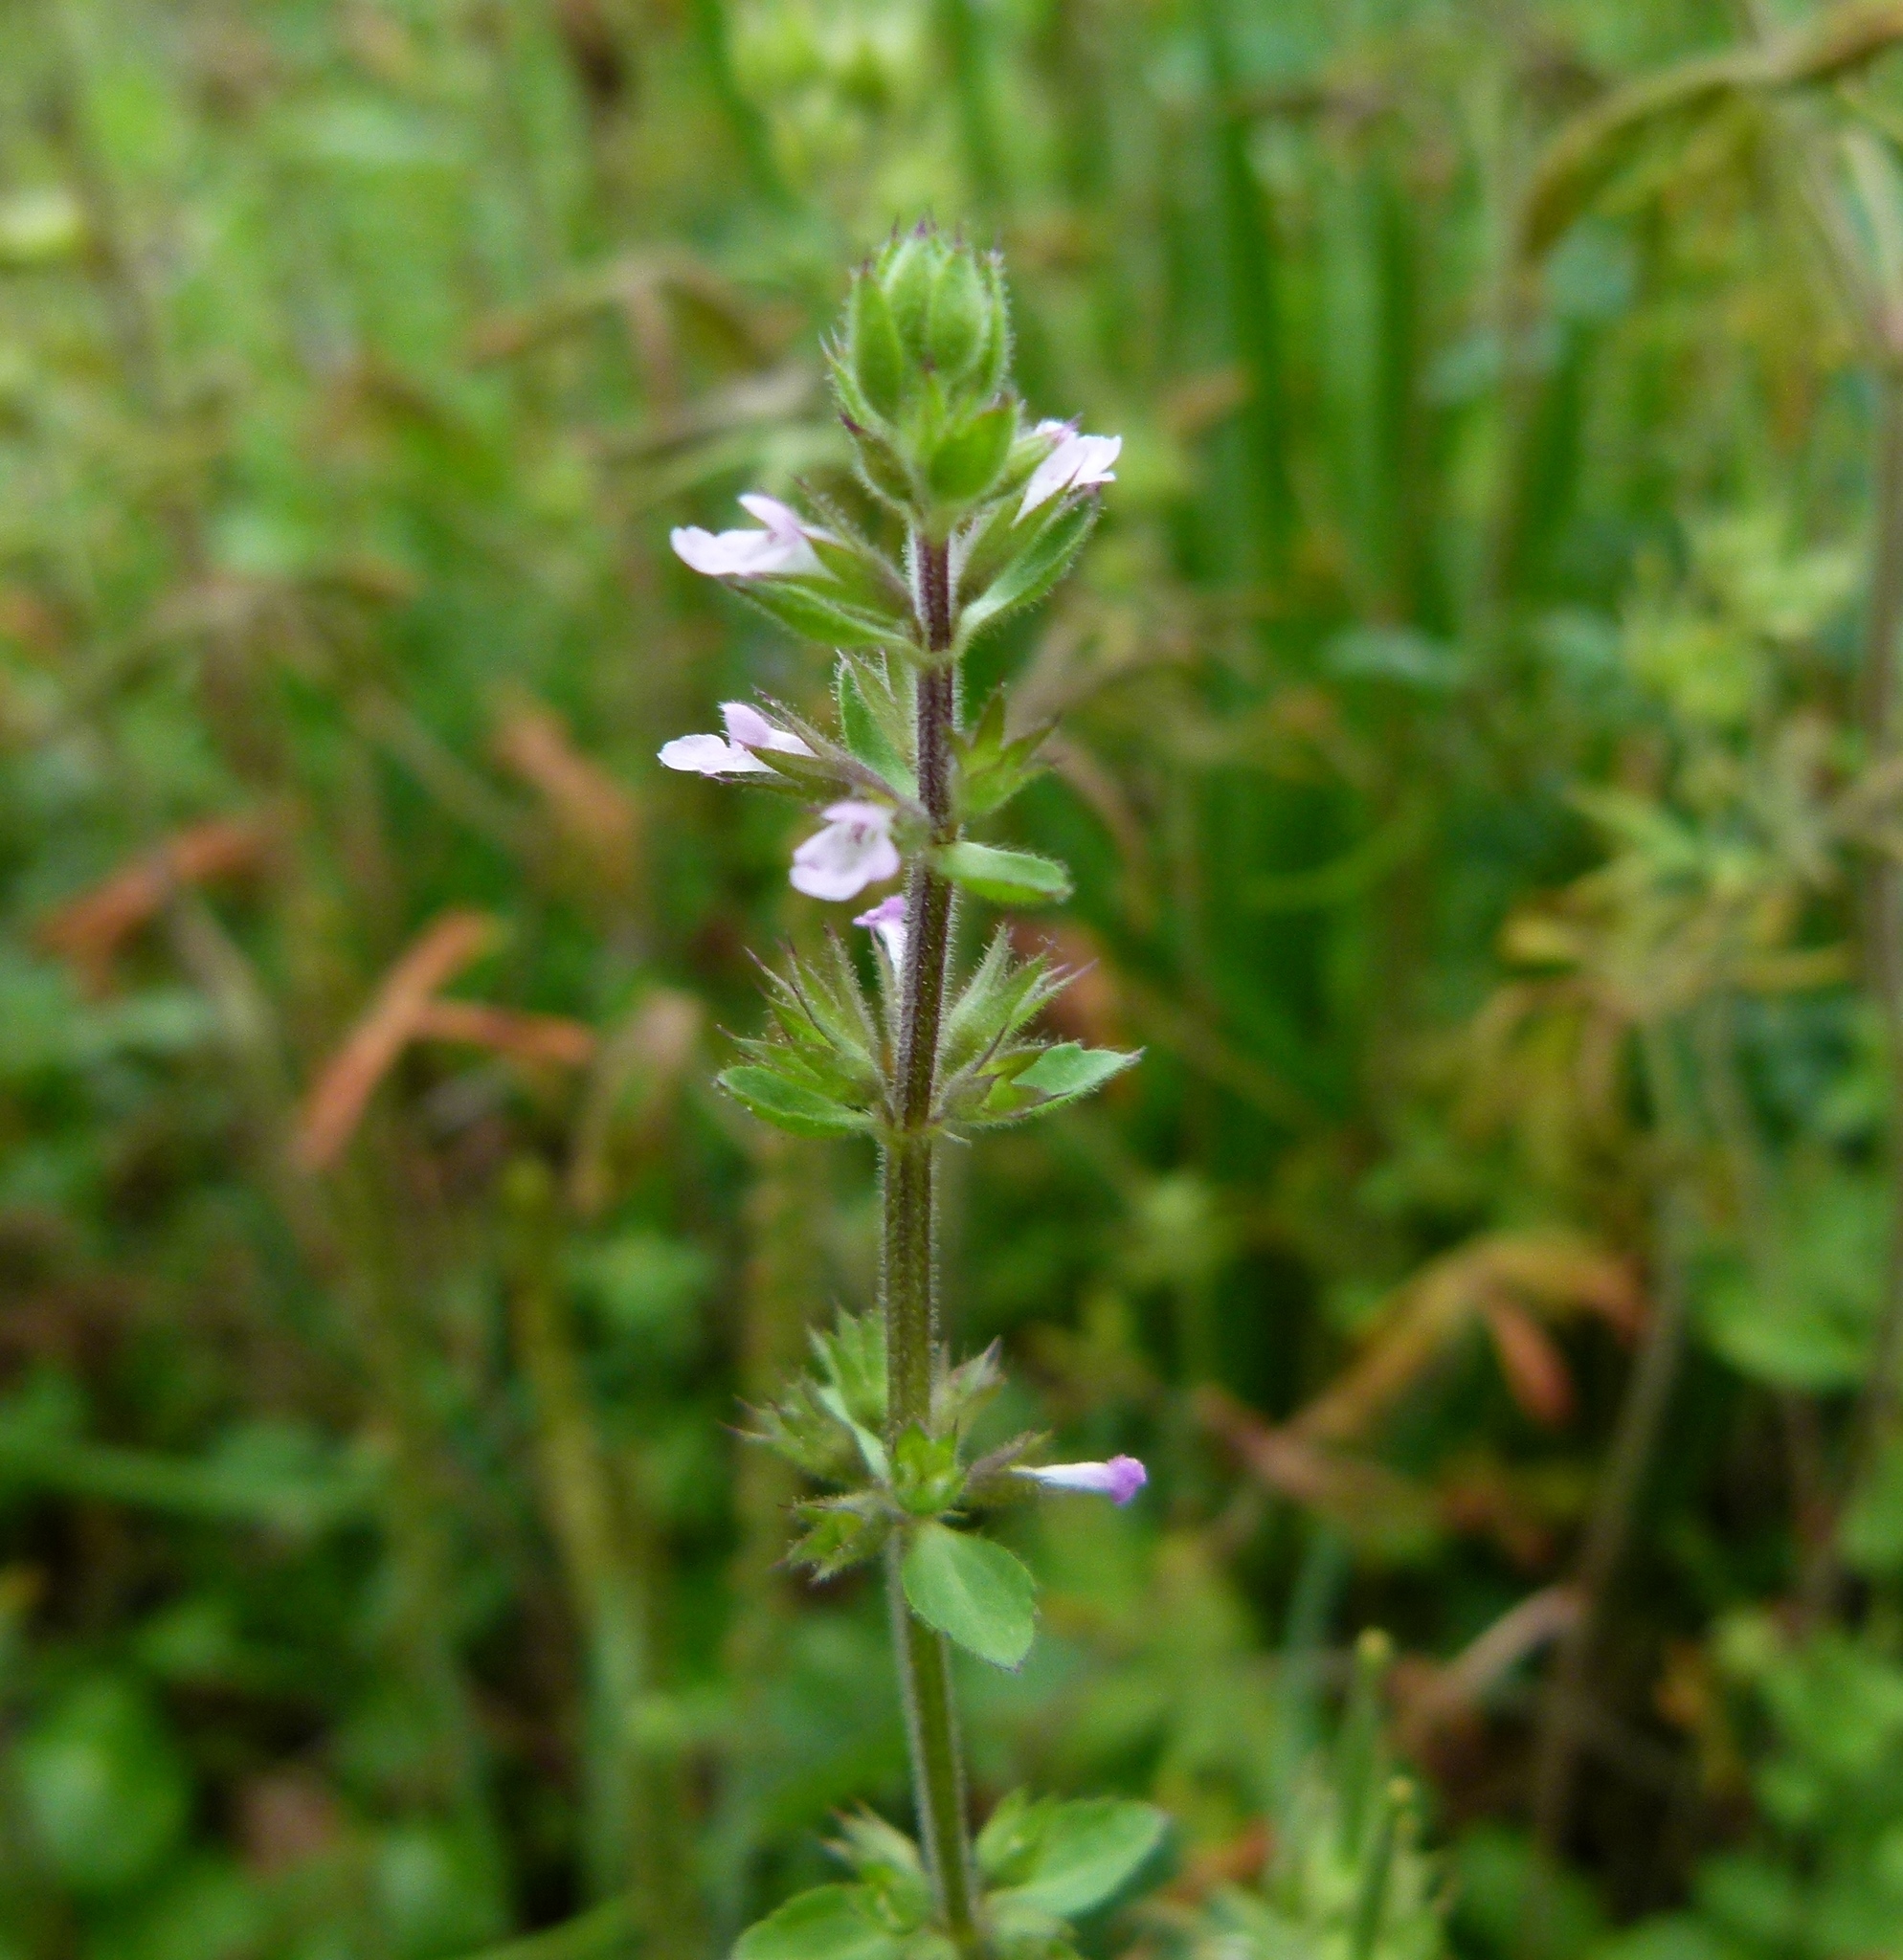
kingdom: Plantae
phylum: Tracheophyta
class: Magnoliopsida
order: Lamiales
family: Lamiaceae
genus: Stachys
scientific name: Stachys
